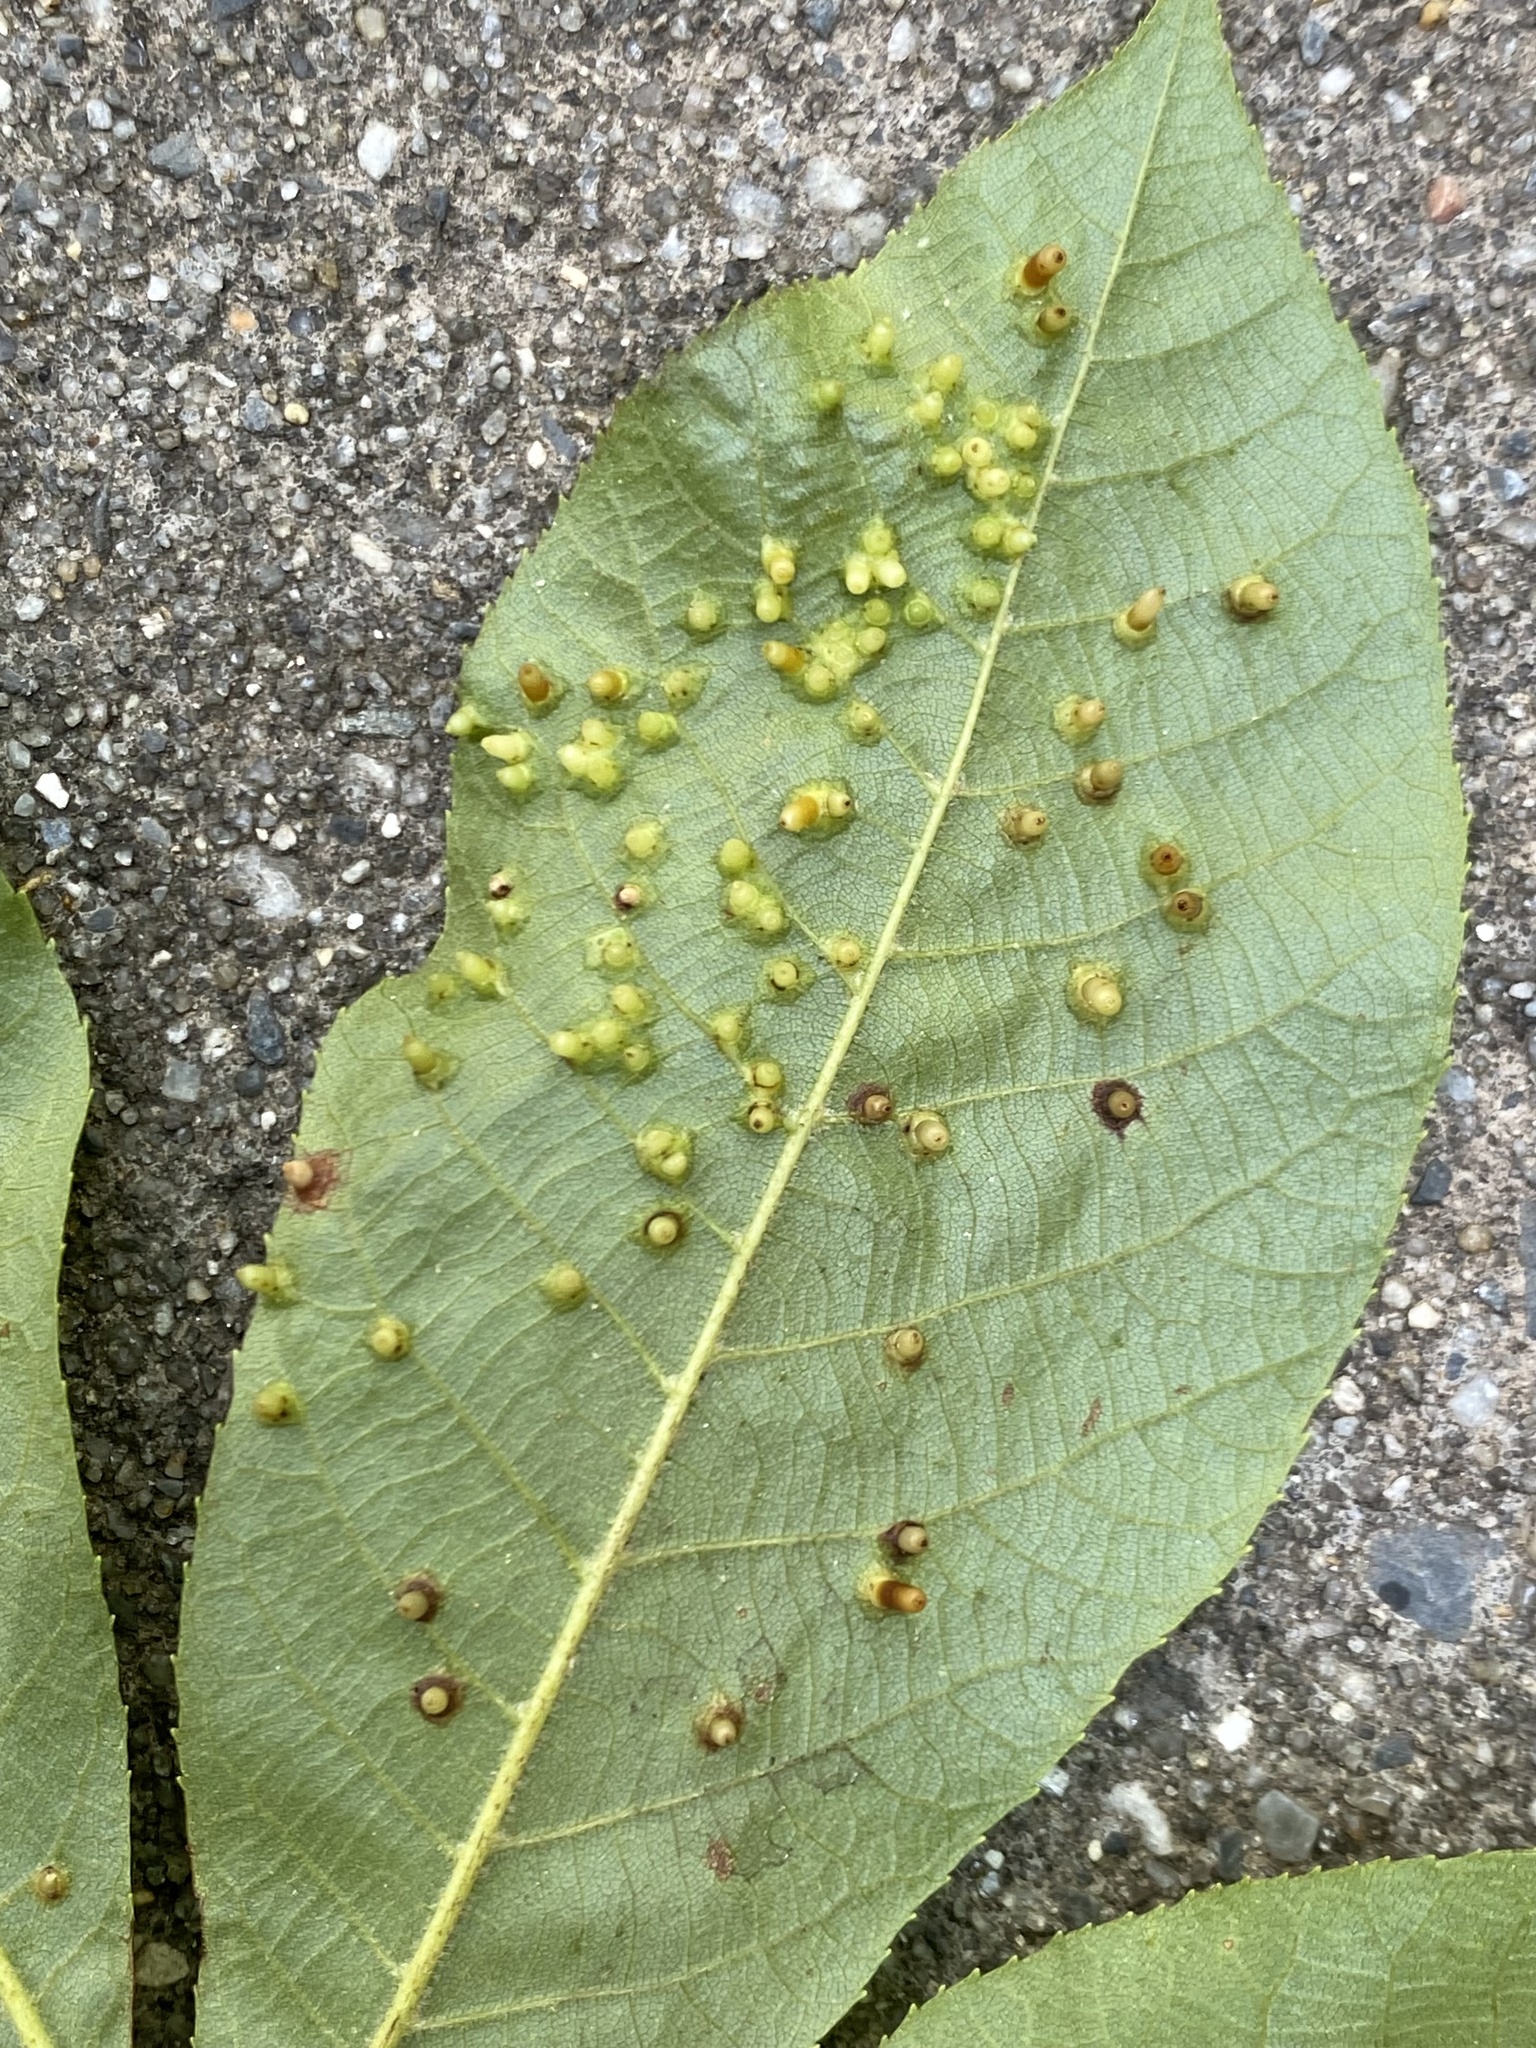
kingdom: Animalia
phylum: Arthropoda
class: Insecta
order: Diptera
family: Cecidomyiidae
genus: Caryomyia
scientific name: Caryomyia tubicola
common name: Hickory bullet gall midge
